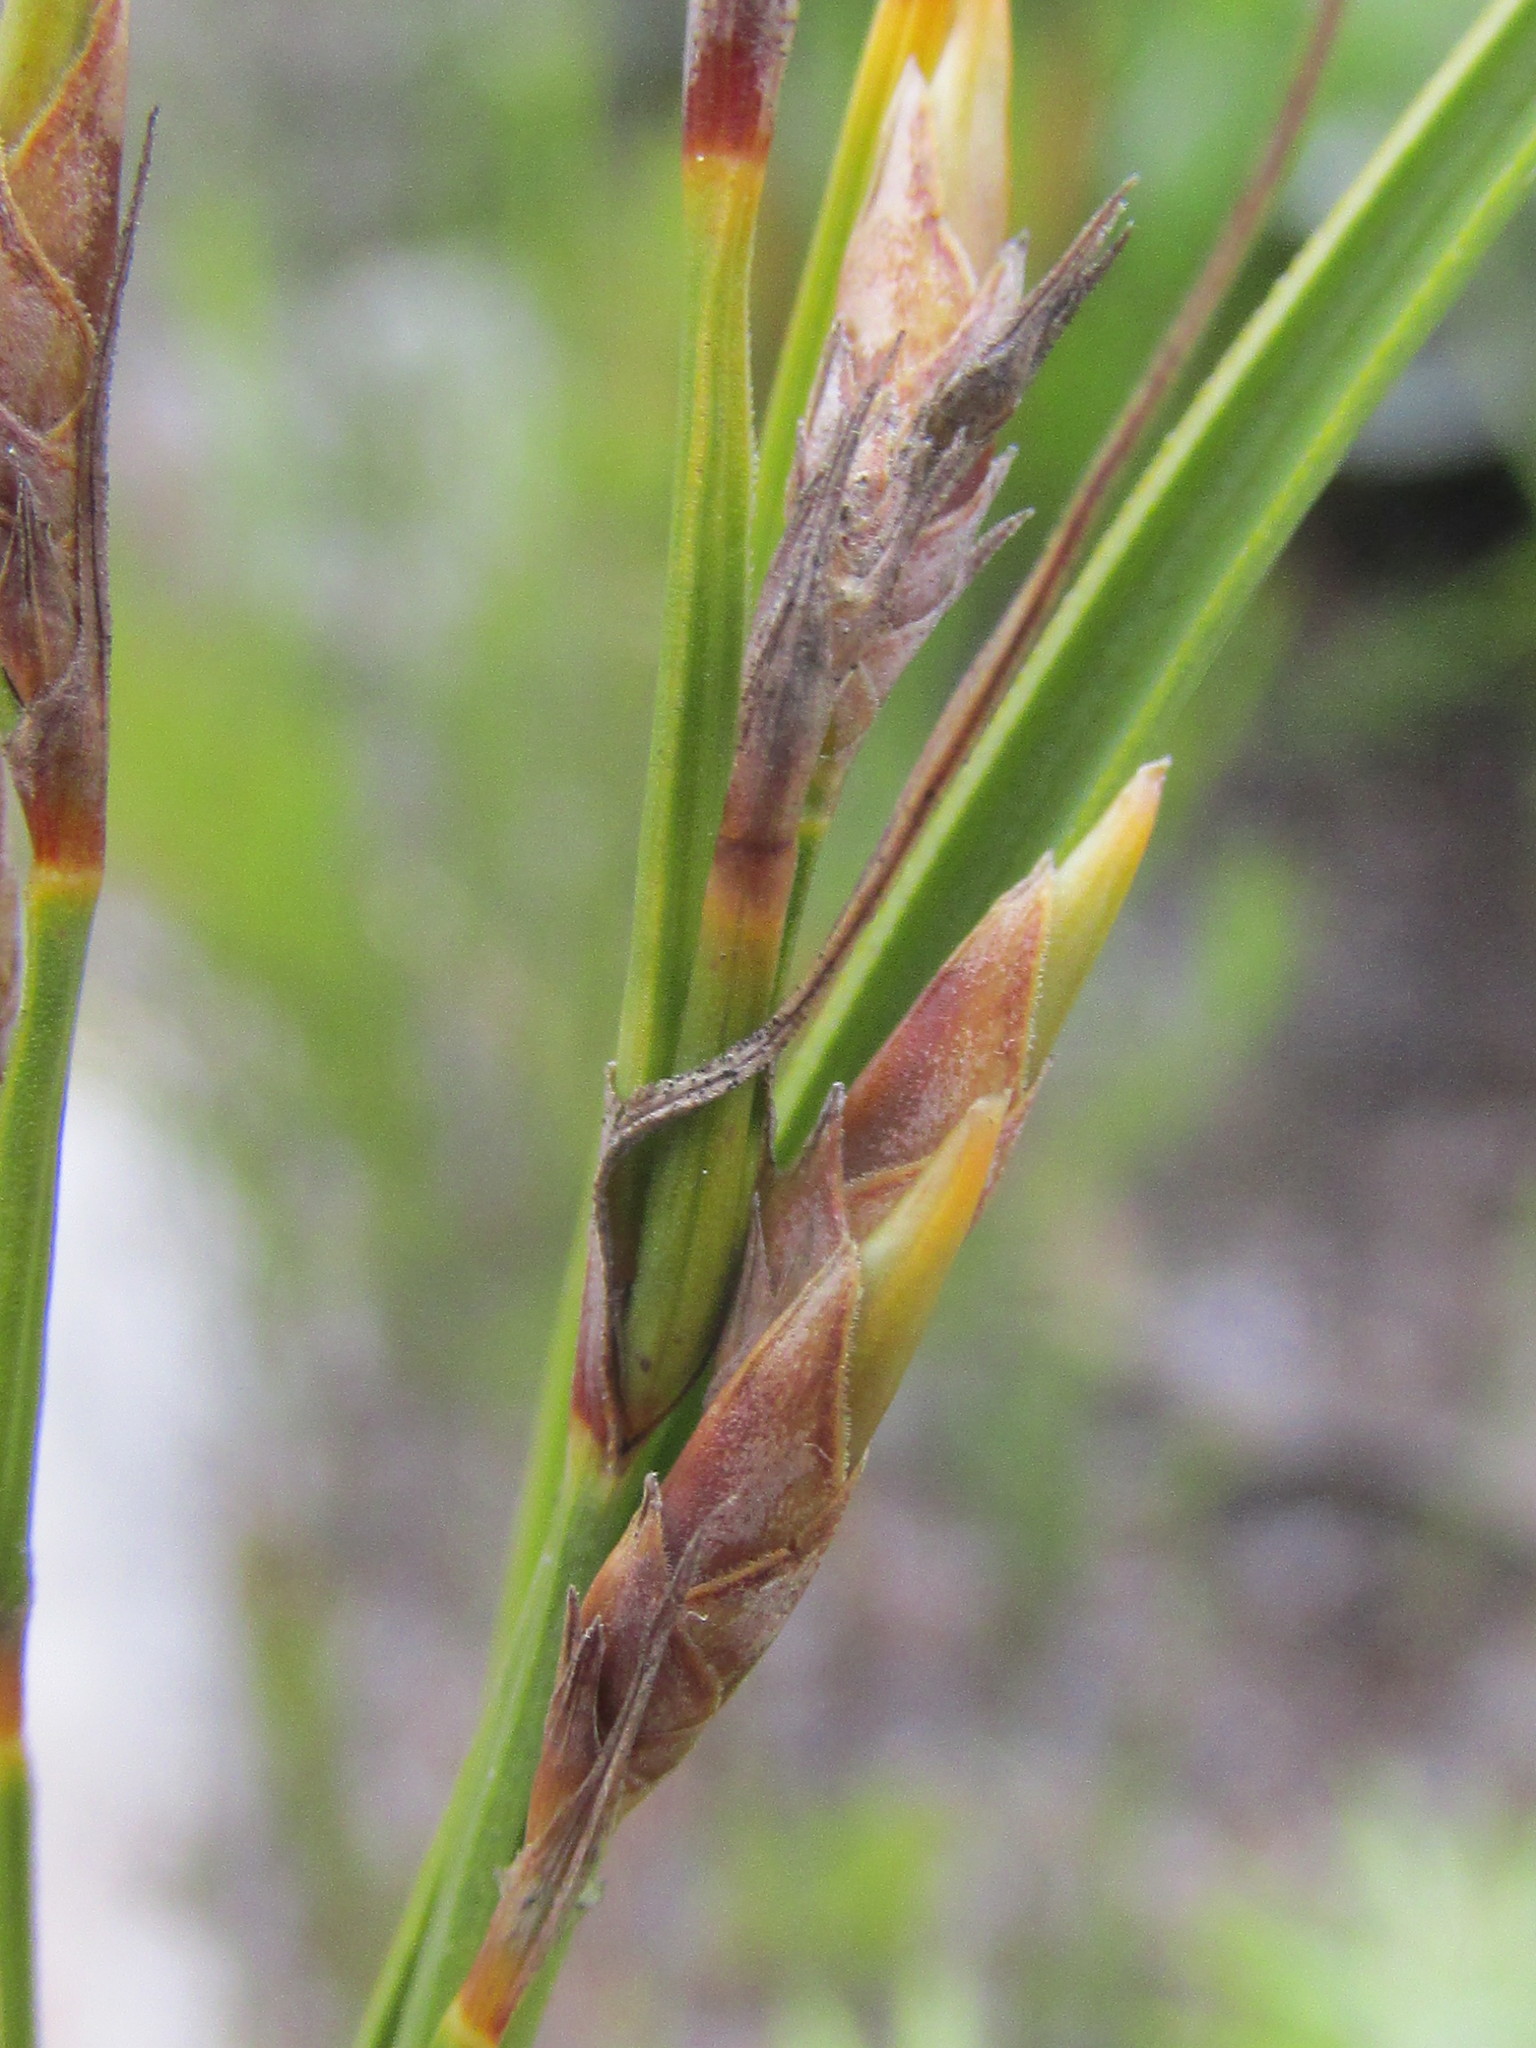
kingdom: Plantae
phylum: Tracheophyta
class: Liliopsida
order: Poales
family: Cyperaceae
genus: Tetraria
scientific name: Tetraria microstachys
